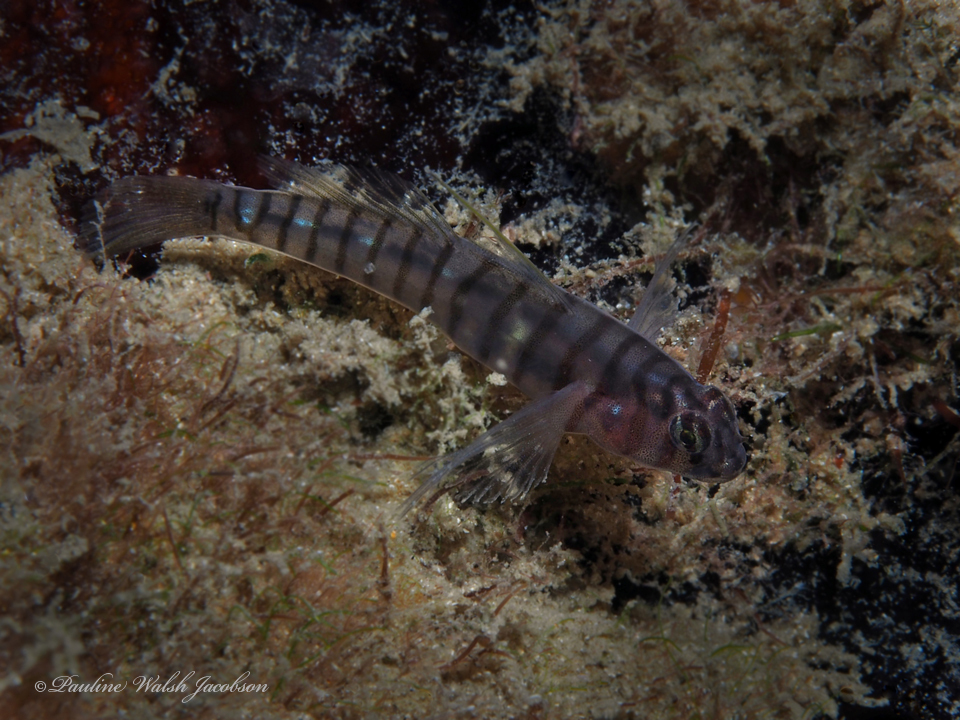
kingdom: Animalia
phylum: Chordata
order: Perciformes
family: Gobiidae
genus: Tigrigobius
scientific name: Tigrigobius macrodon
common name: Tiger goby
